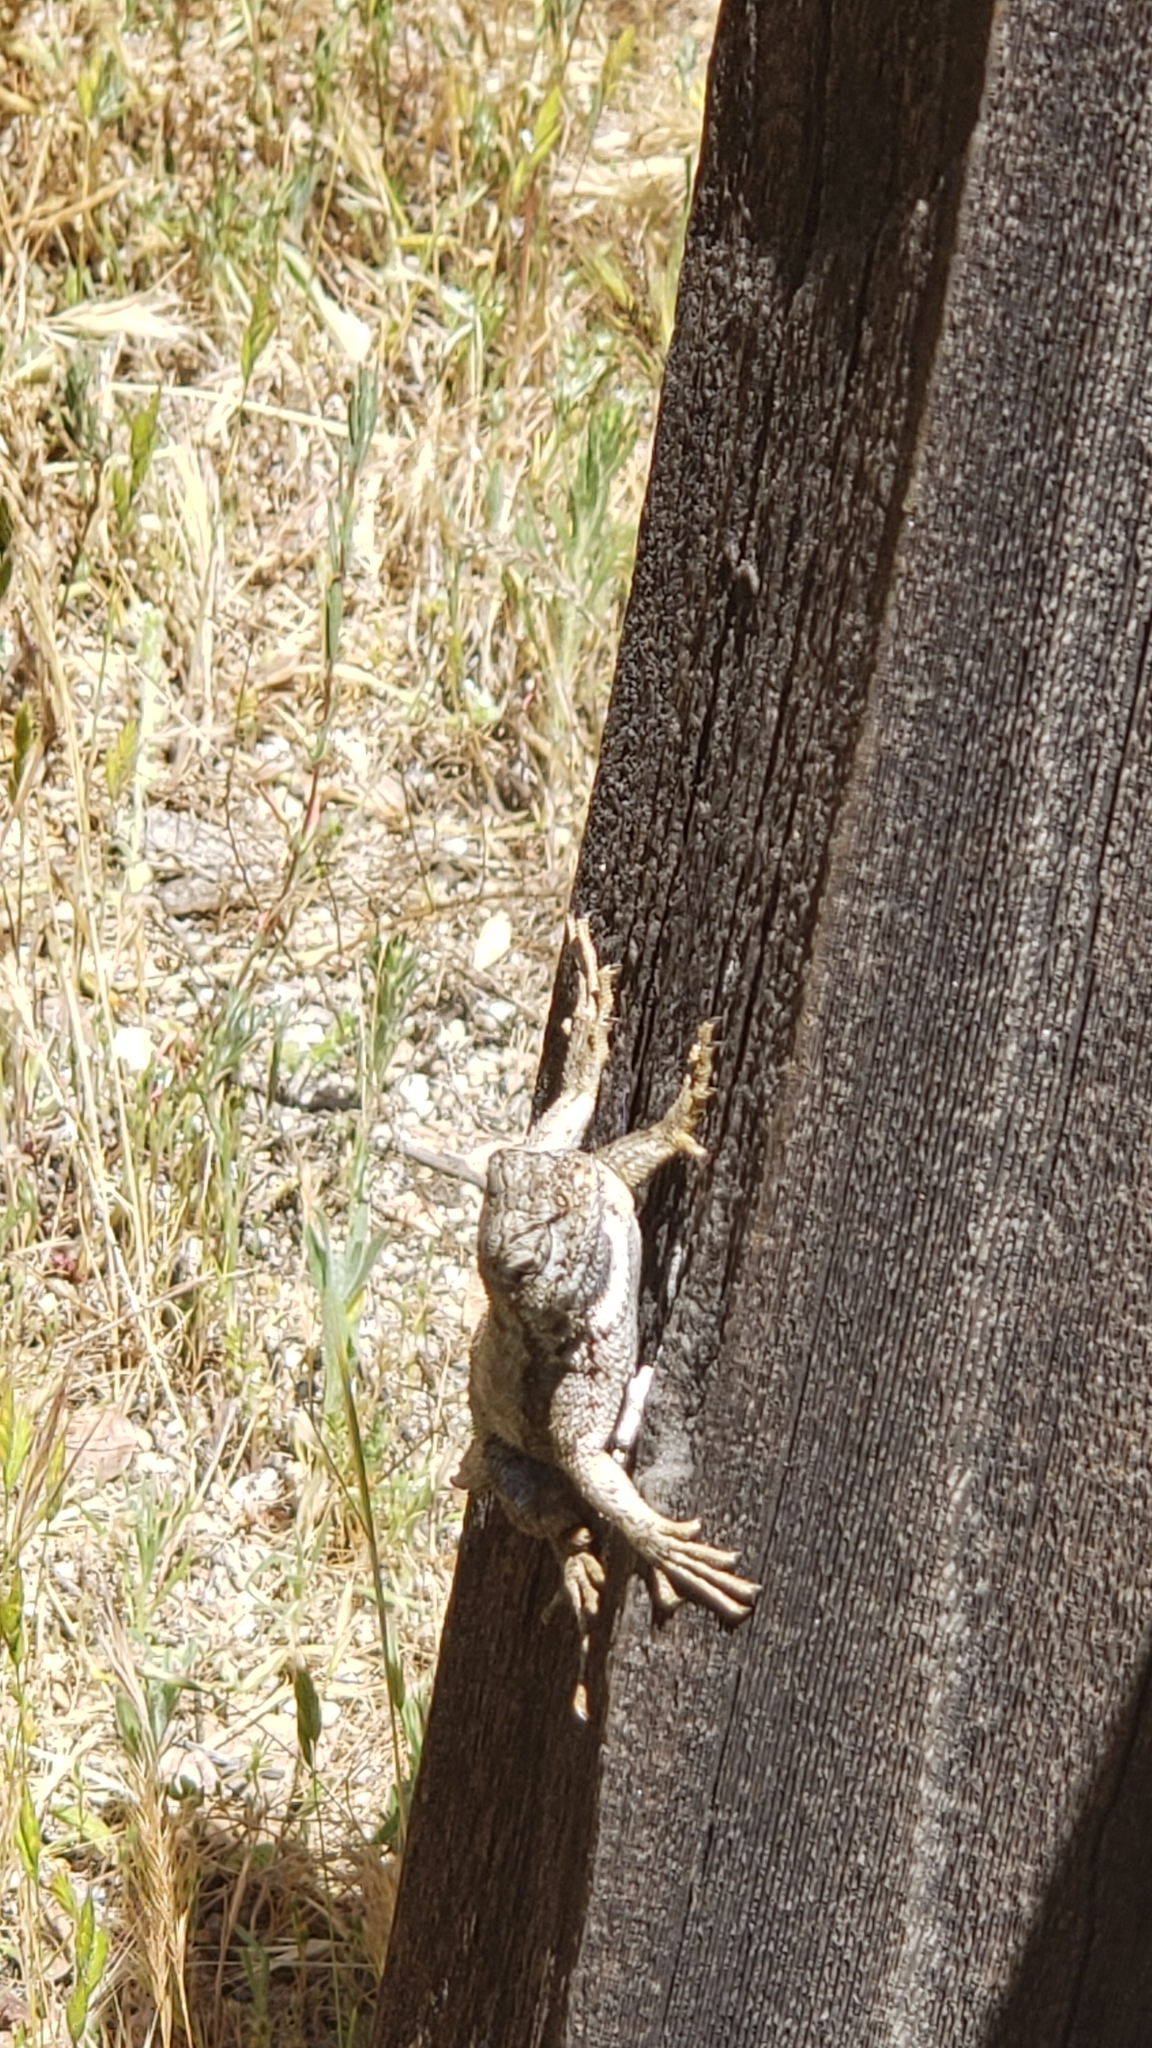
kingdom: Animalia
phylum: Chordata
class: Squamata
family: Phrynosomatidae
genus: Sceloporus
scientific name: Sceloporus occidentalis
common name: Western fence lizard
